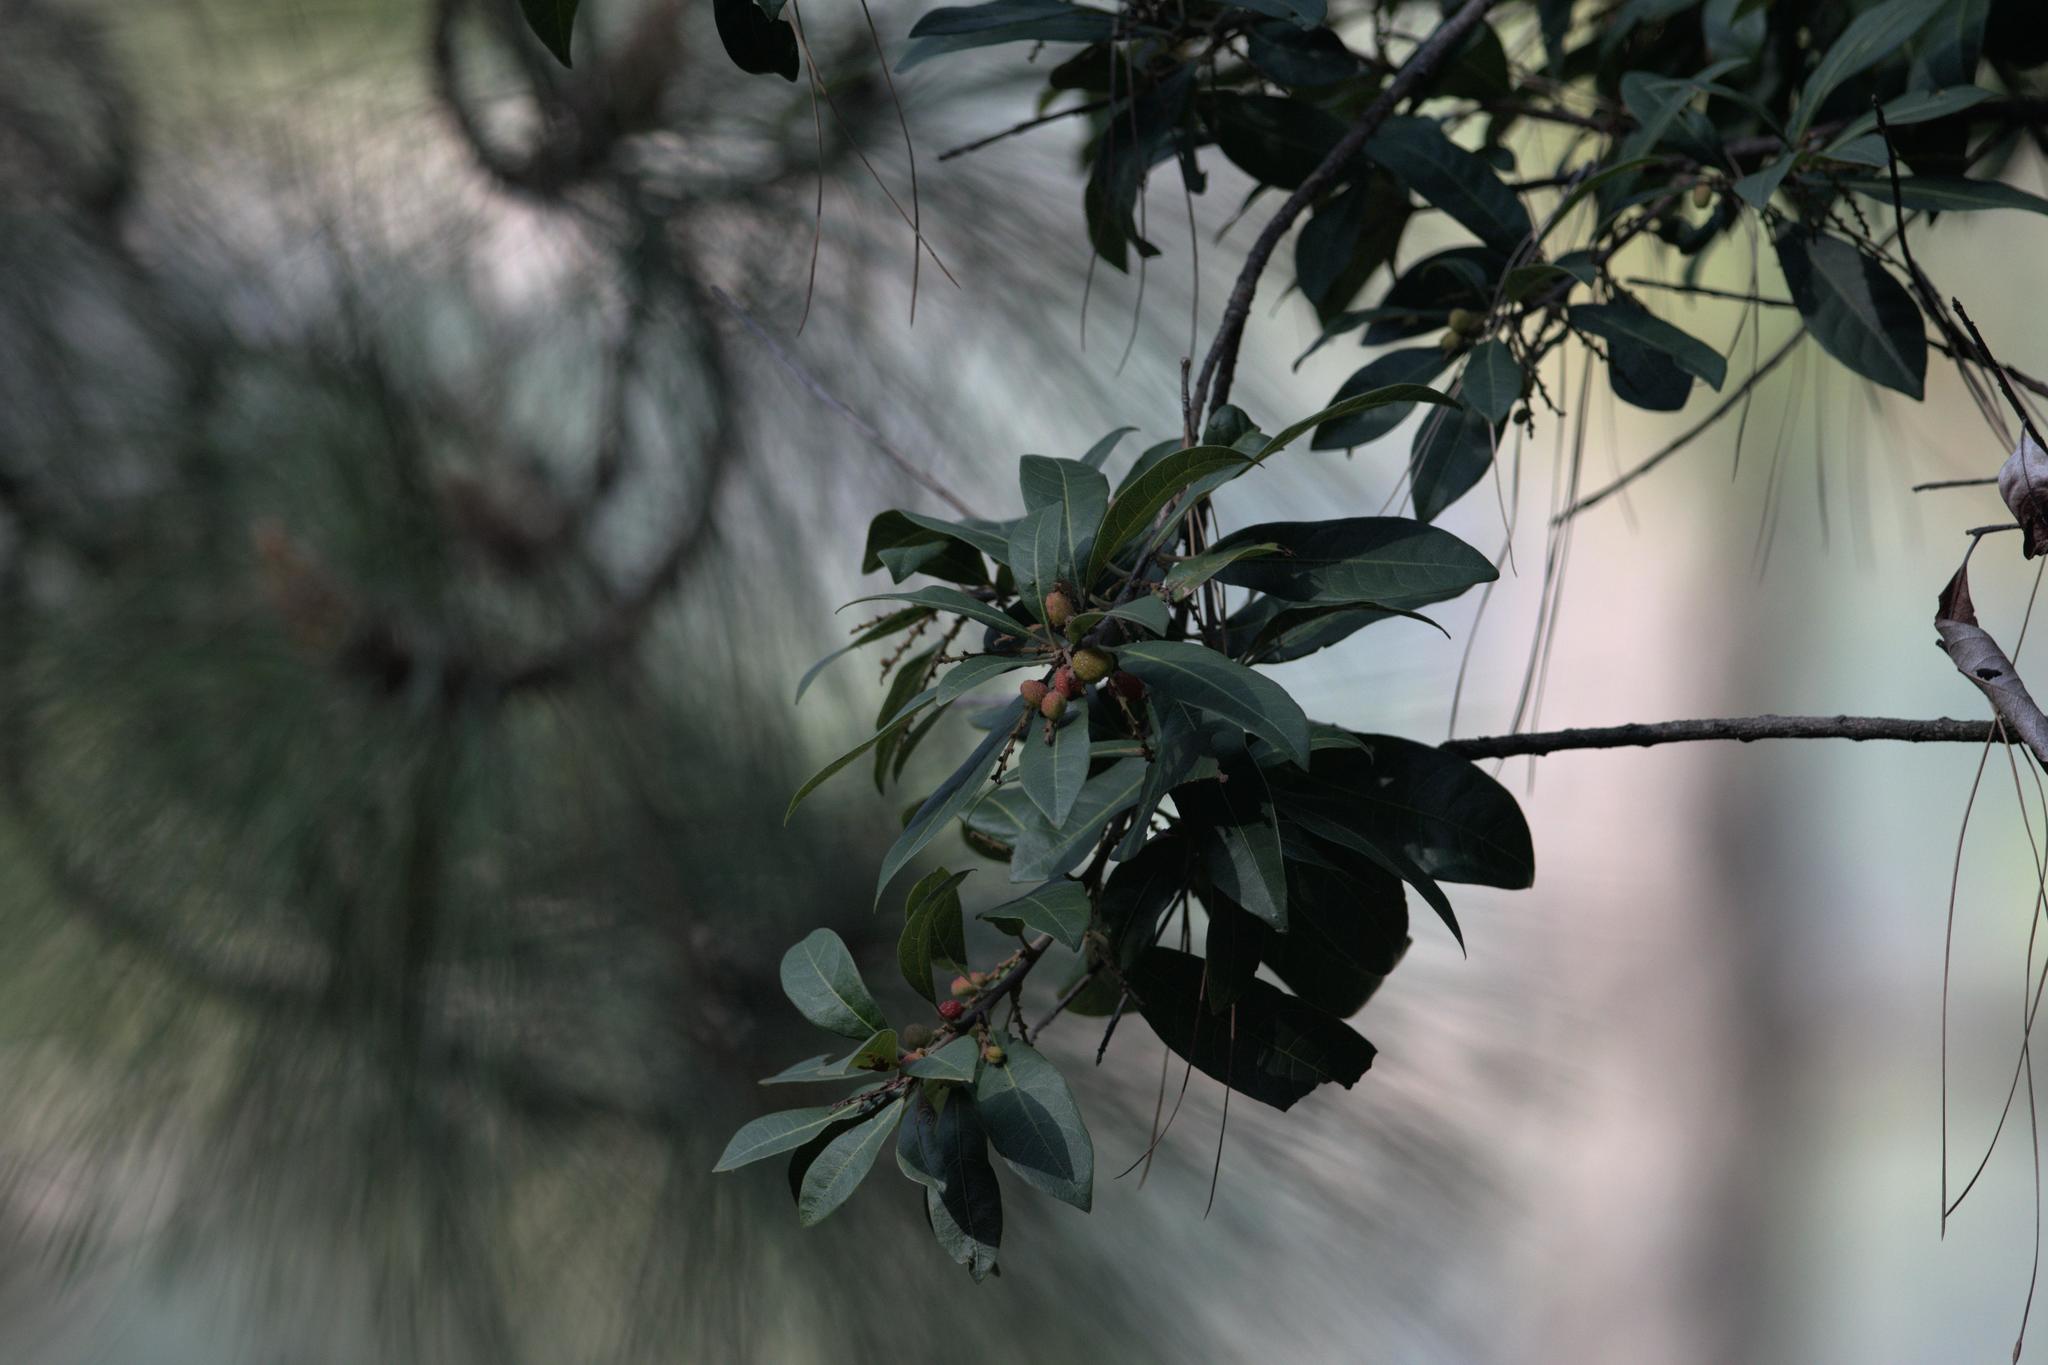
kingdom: Plantae
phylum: Tracheophyta
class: Magnoliopsida
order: Fagales
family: Myricaceae
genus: Morella
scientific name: Morella esculenta
